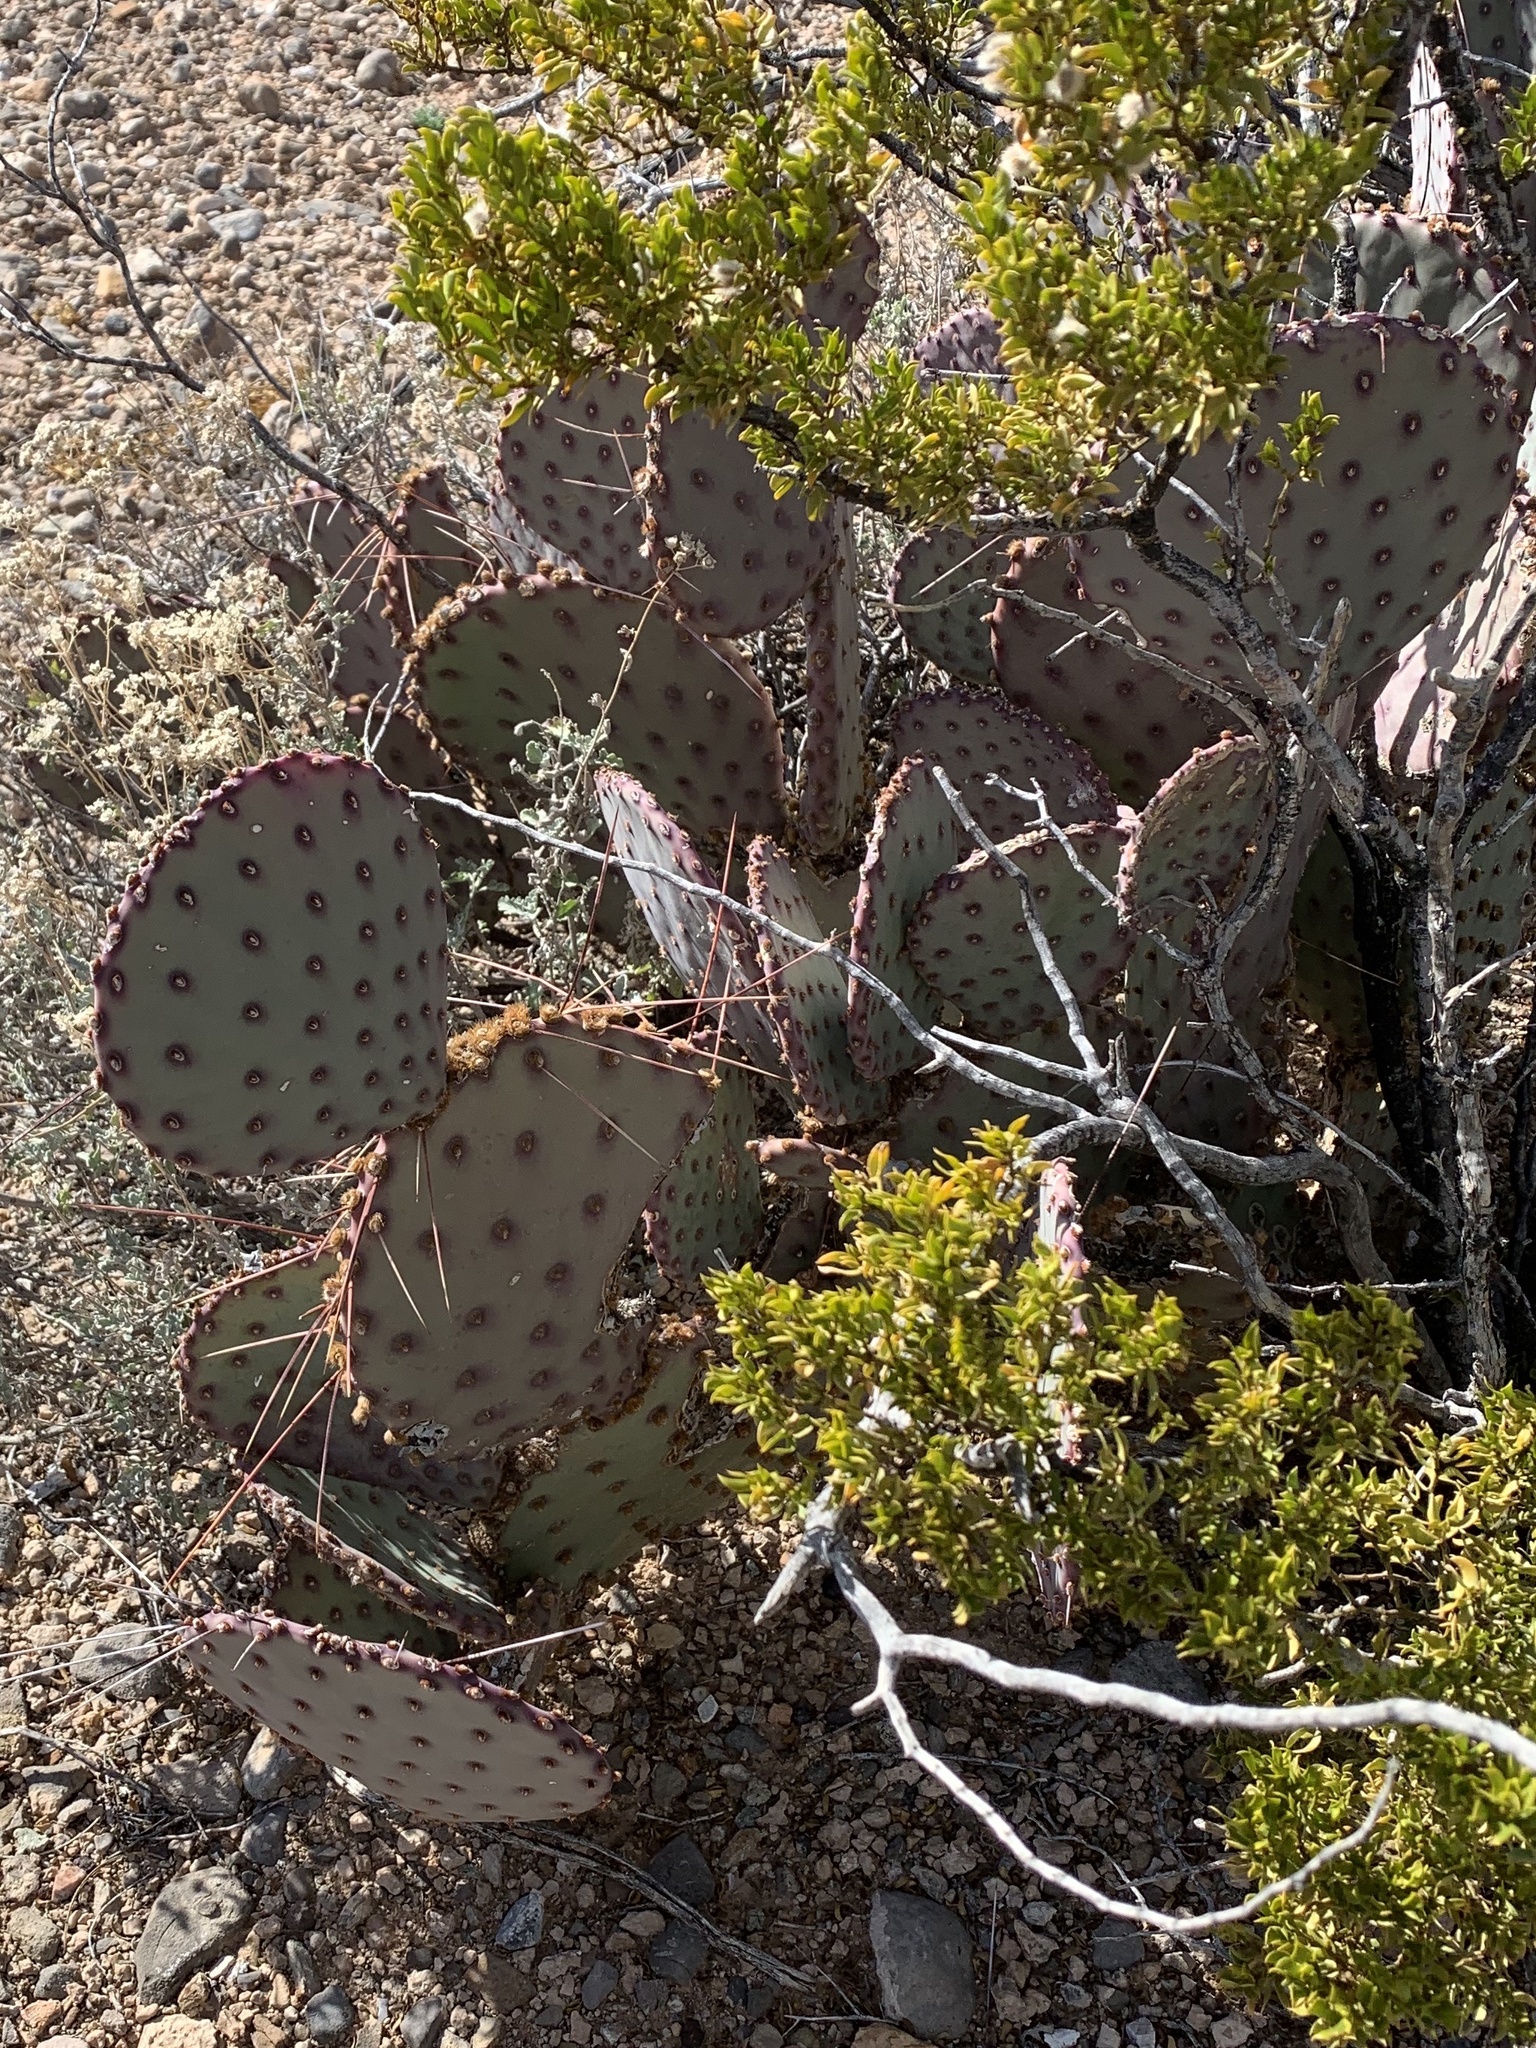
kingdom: Plantae
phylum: Tracheophyta
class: Magnoliopsida
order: Caryophyllales
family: Cactaceae
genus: Opuntia
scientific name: Opuntia macrocentra
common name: Purple prickly-pear
